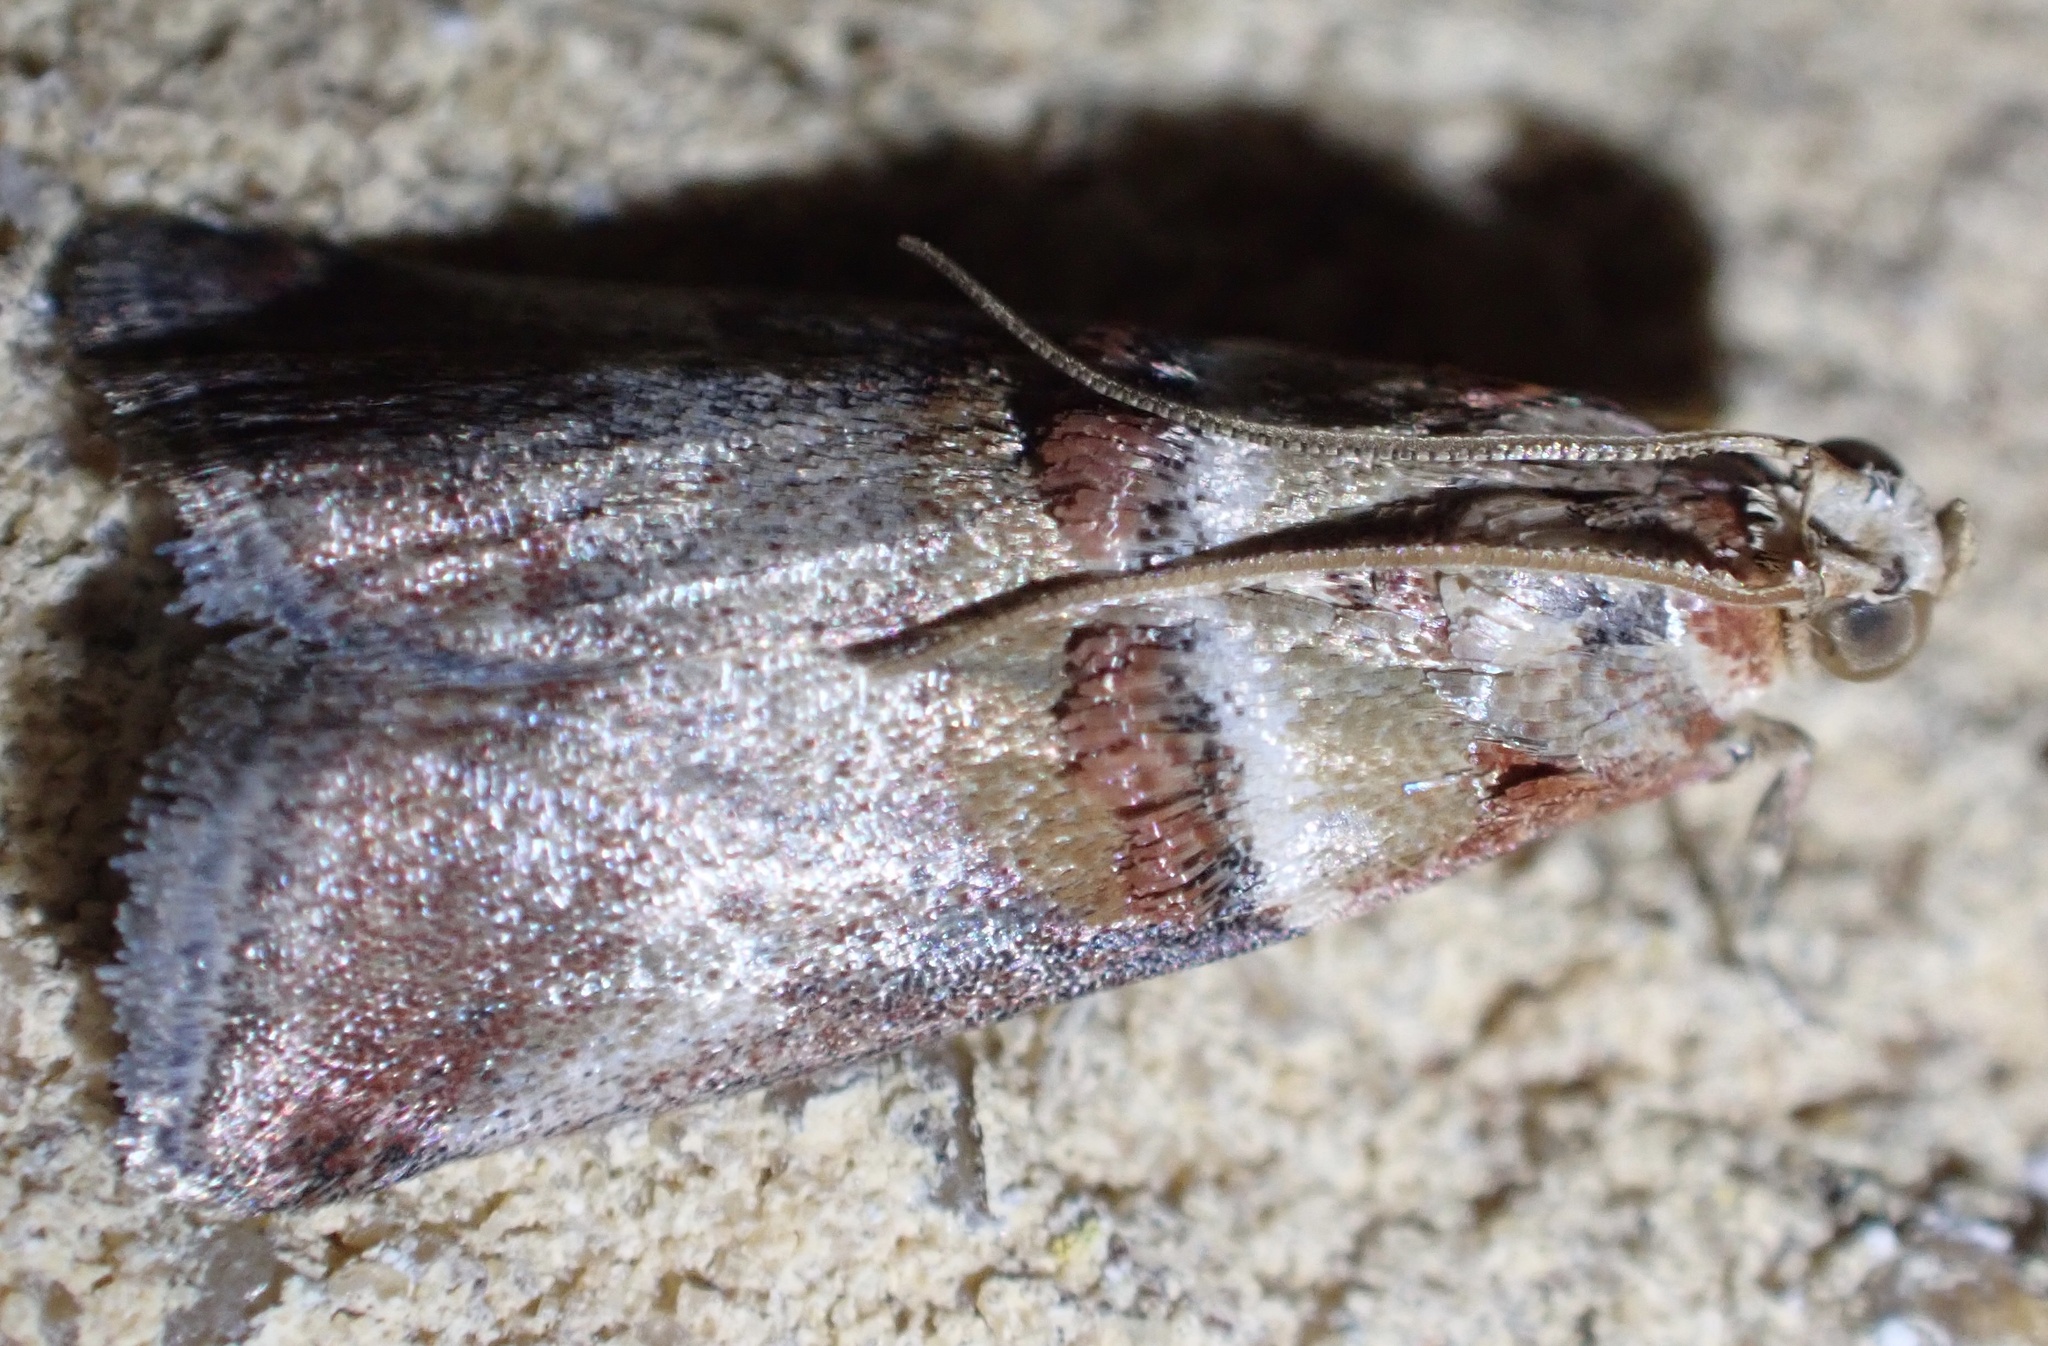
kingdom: Animalia
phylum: Arthropoda
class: Insecta
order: Lepidoptera
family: Pyralidae
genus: Acrobasis
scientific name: Acrobasis tumidana
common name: Scarce oak knot-horn
